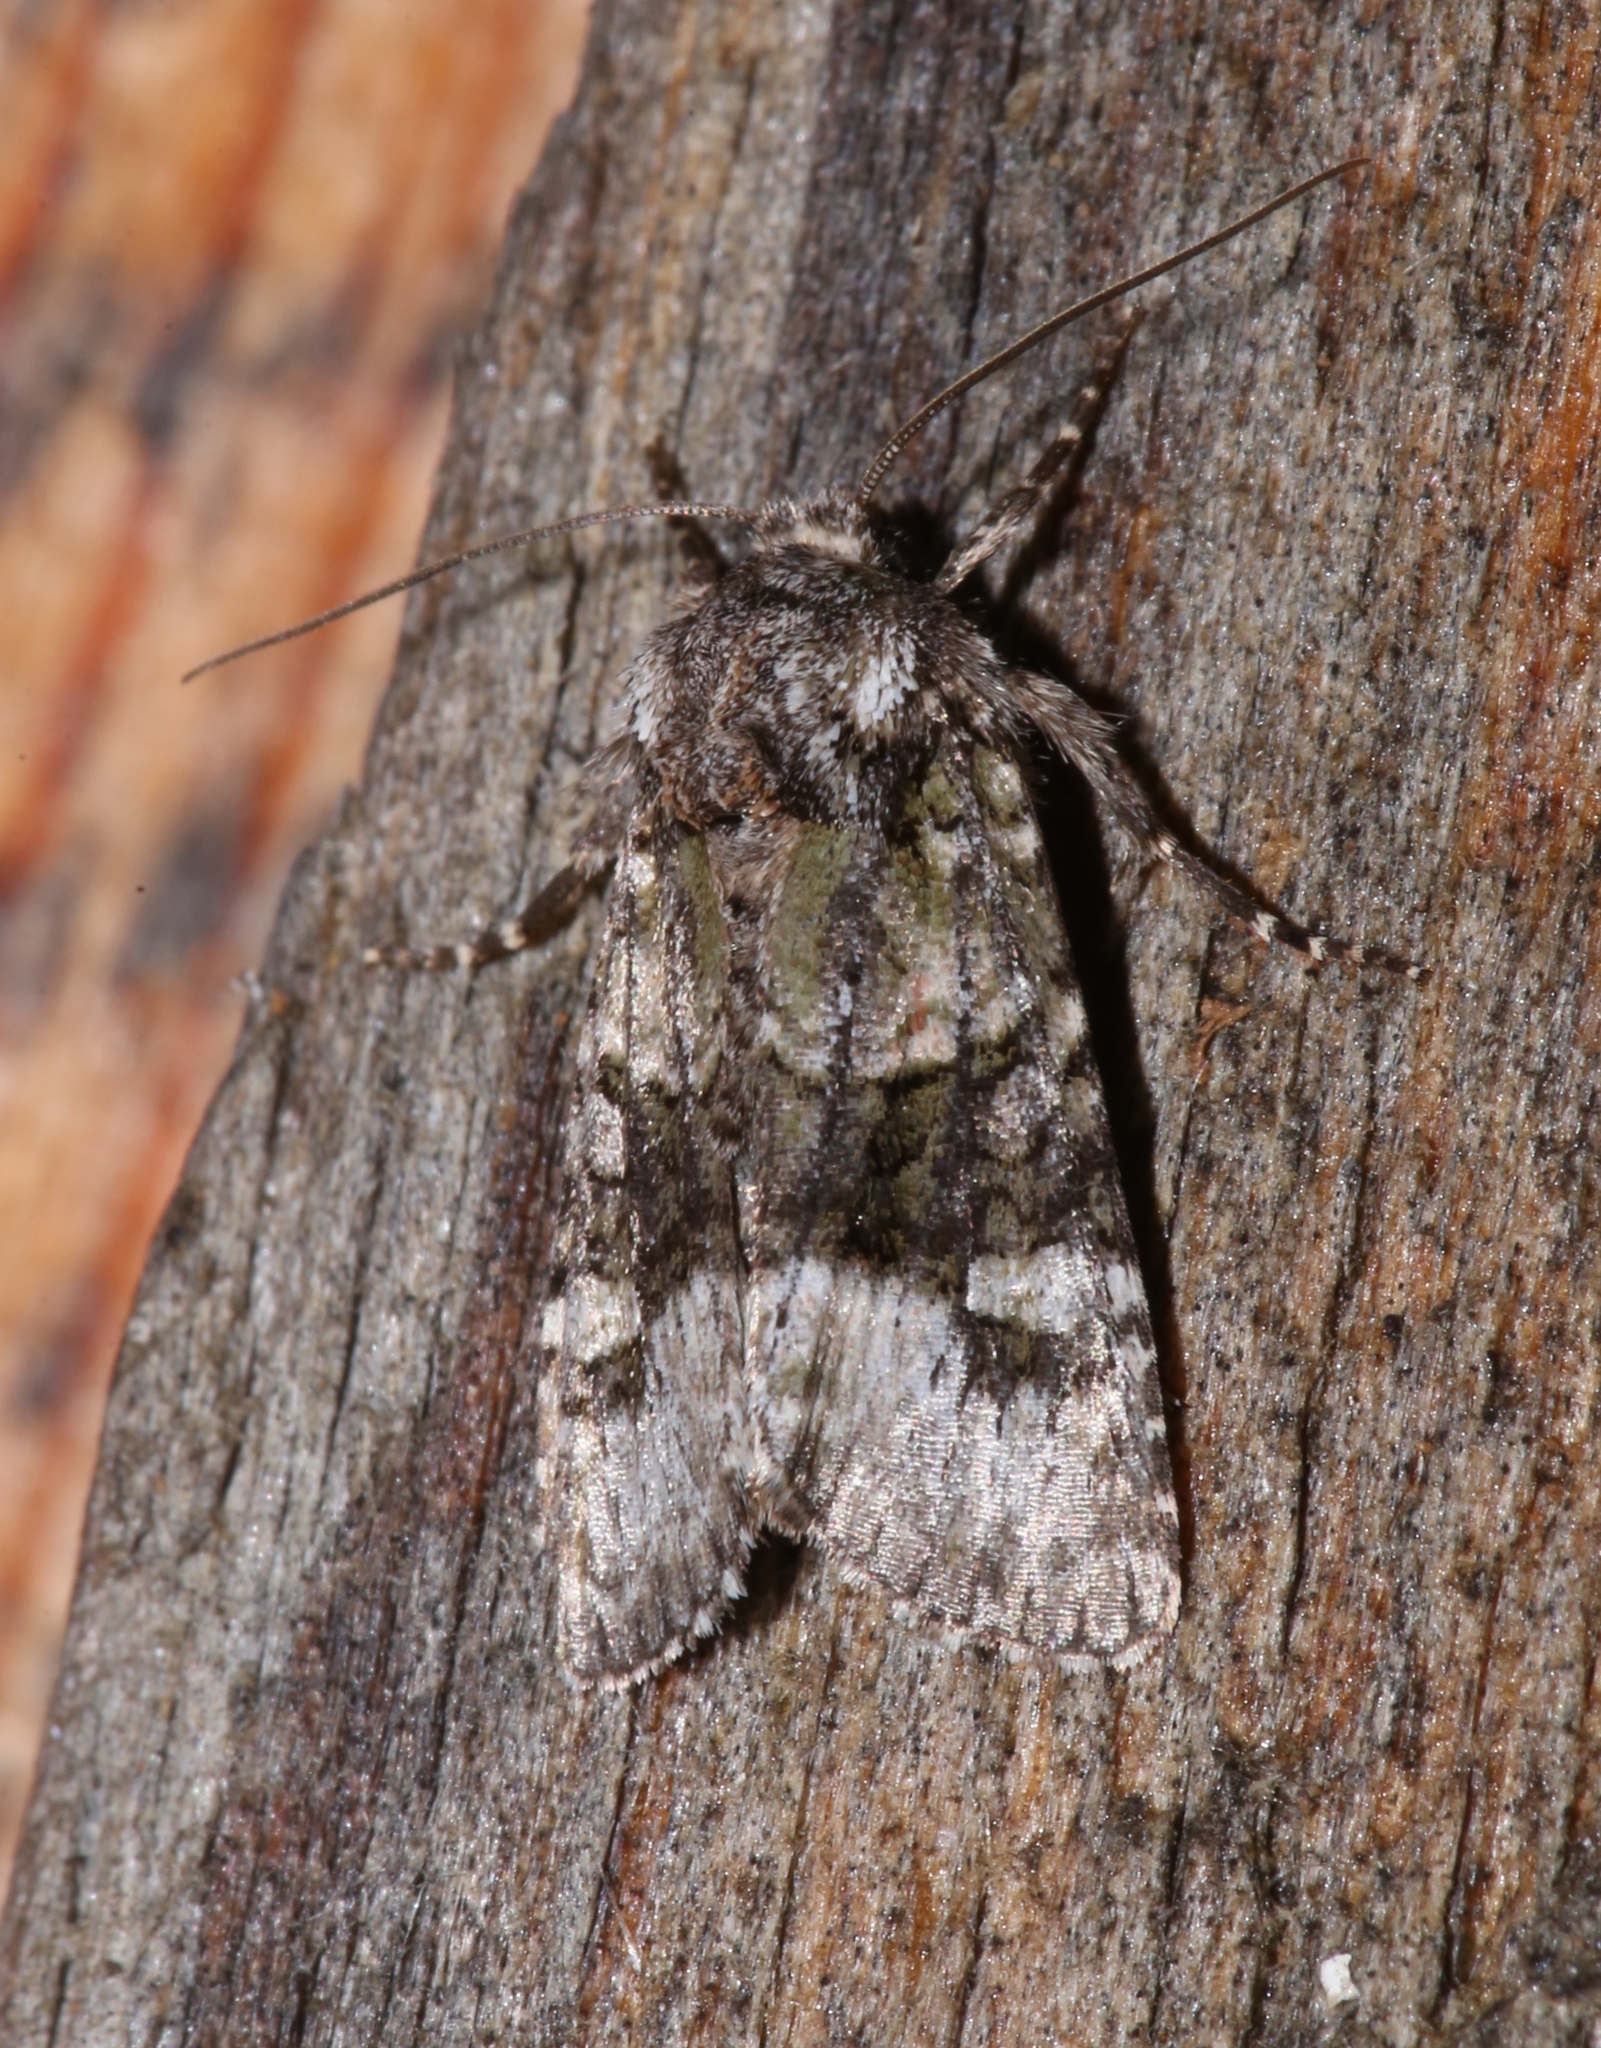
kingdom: Animalia
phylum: Arthropoda
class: Insecta
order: Lepidoptera
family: Noctuidae
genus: Lacinipolia
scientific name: Lacinipolia olivacea
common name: Olive arches moth
